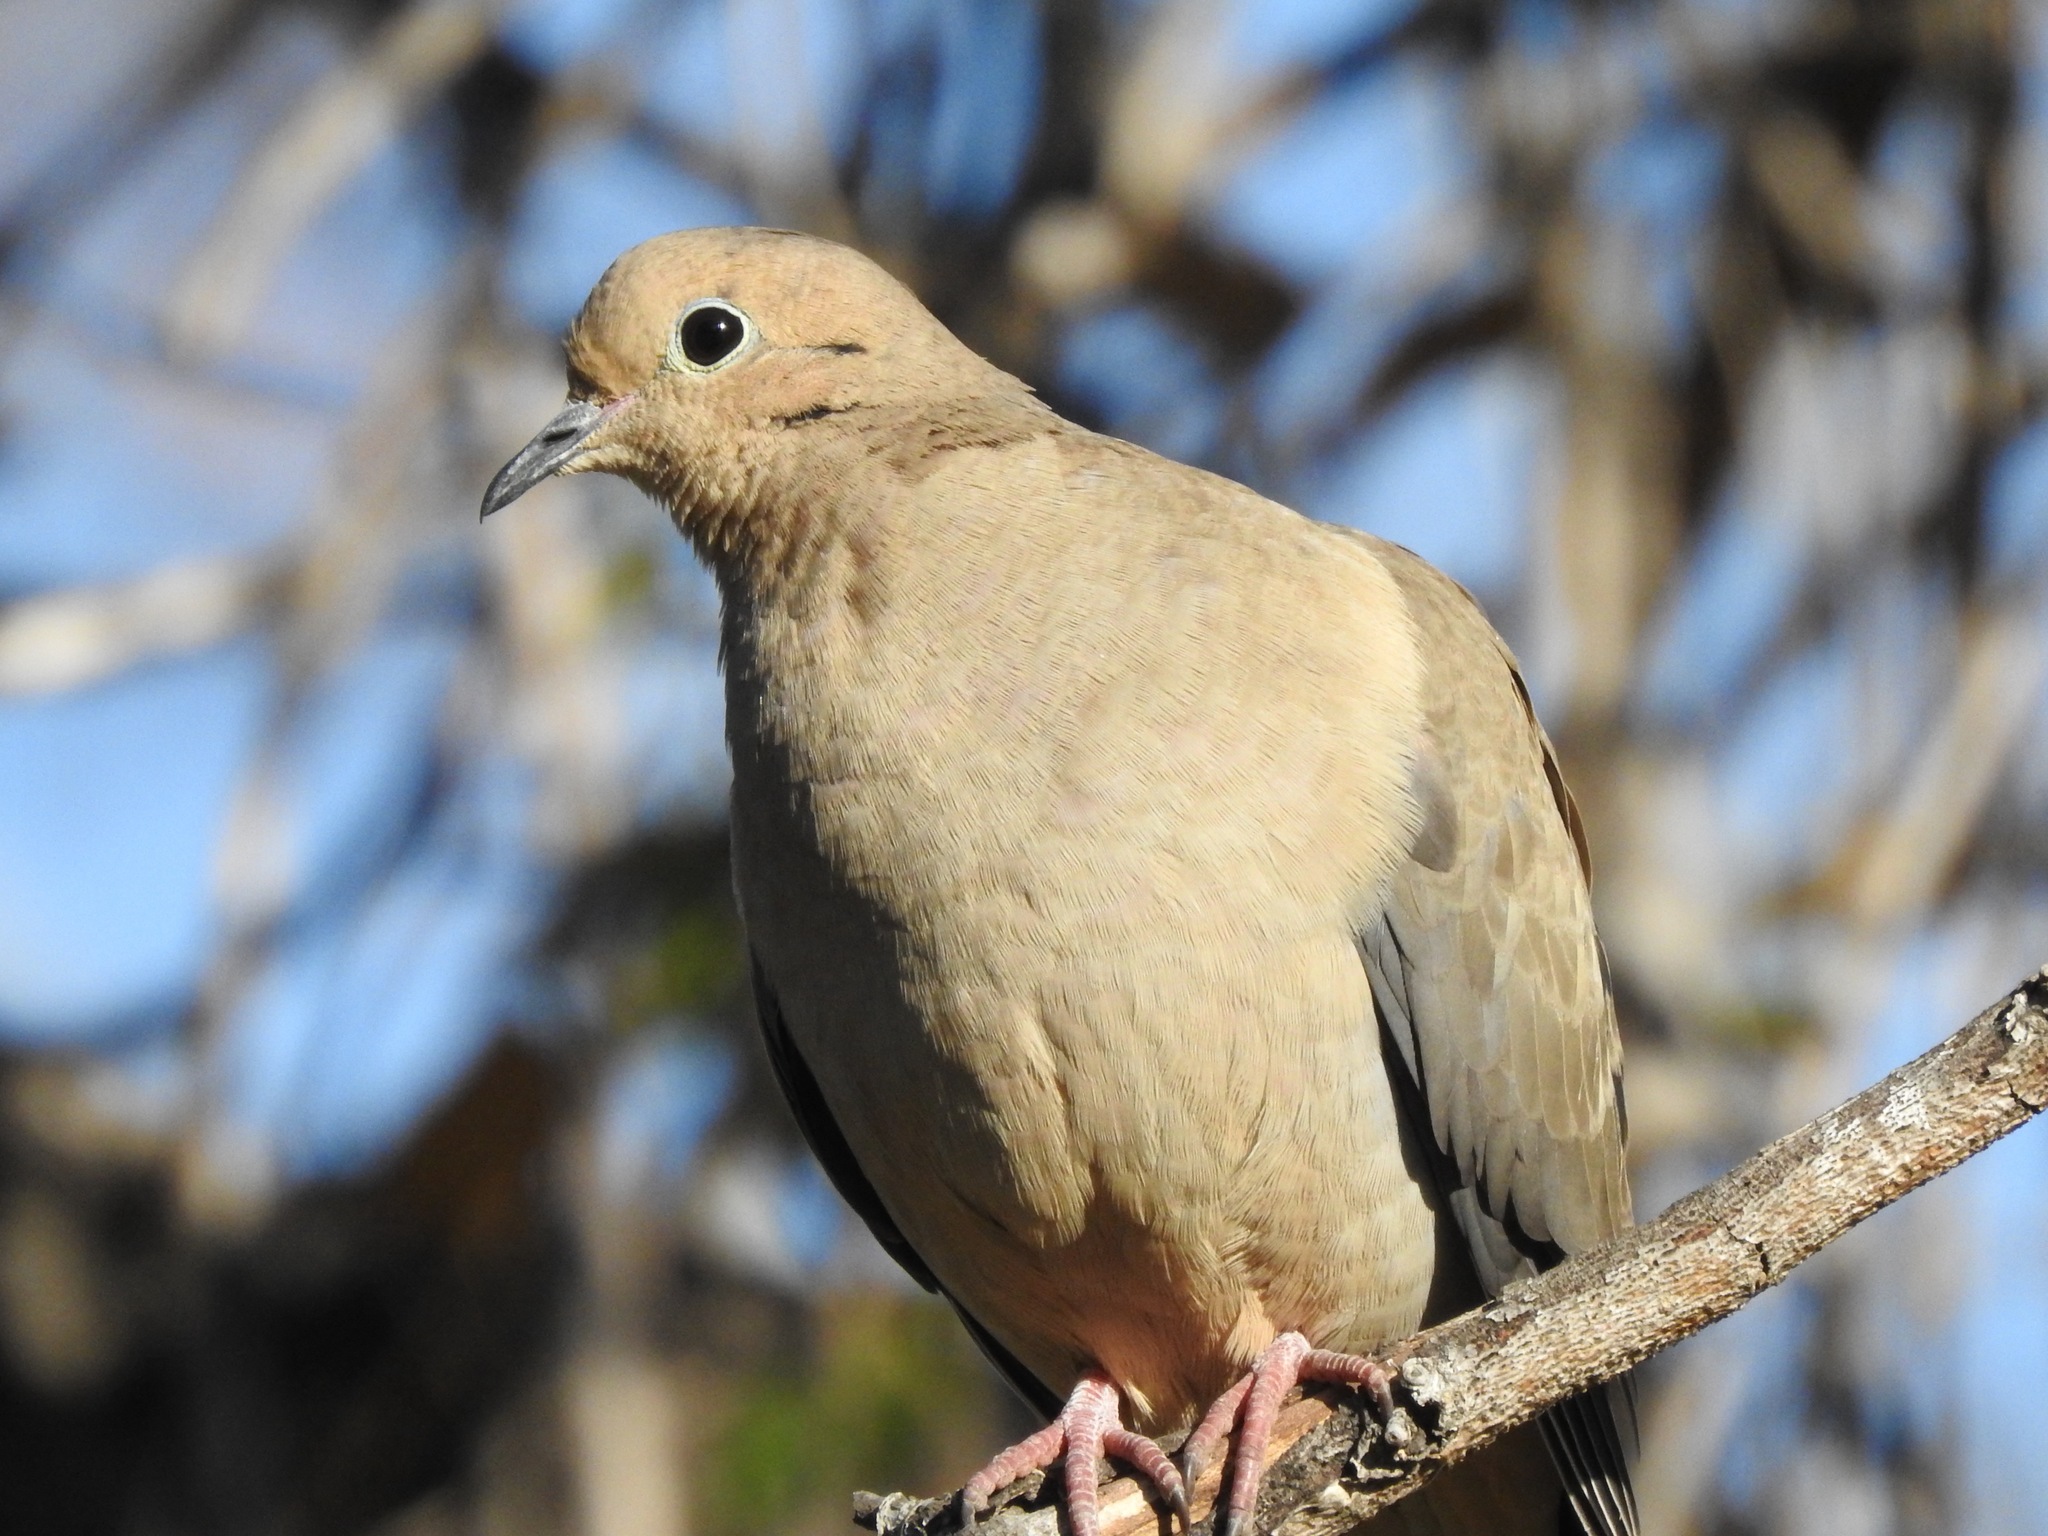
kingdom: Animalia
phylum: Chordata
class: Aves
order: Columbiformes
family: Columbidae
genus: Zenaida
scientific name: Zenaida macroura
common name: Mourning dove
